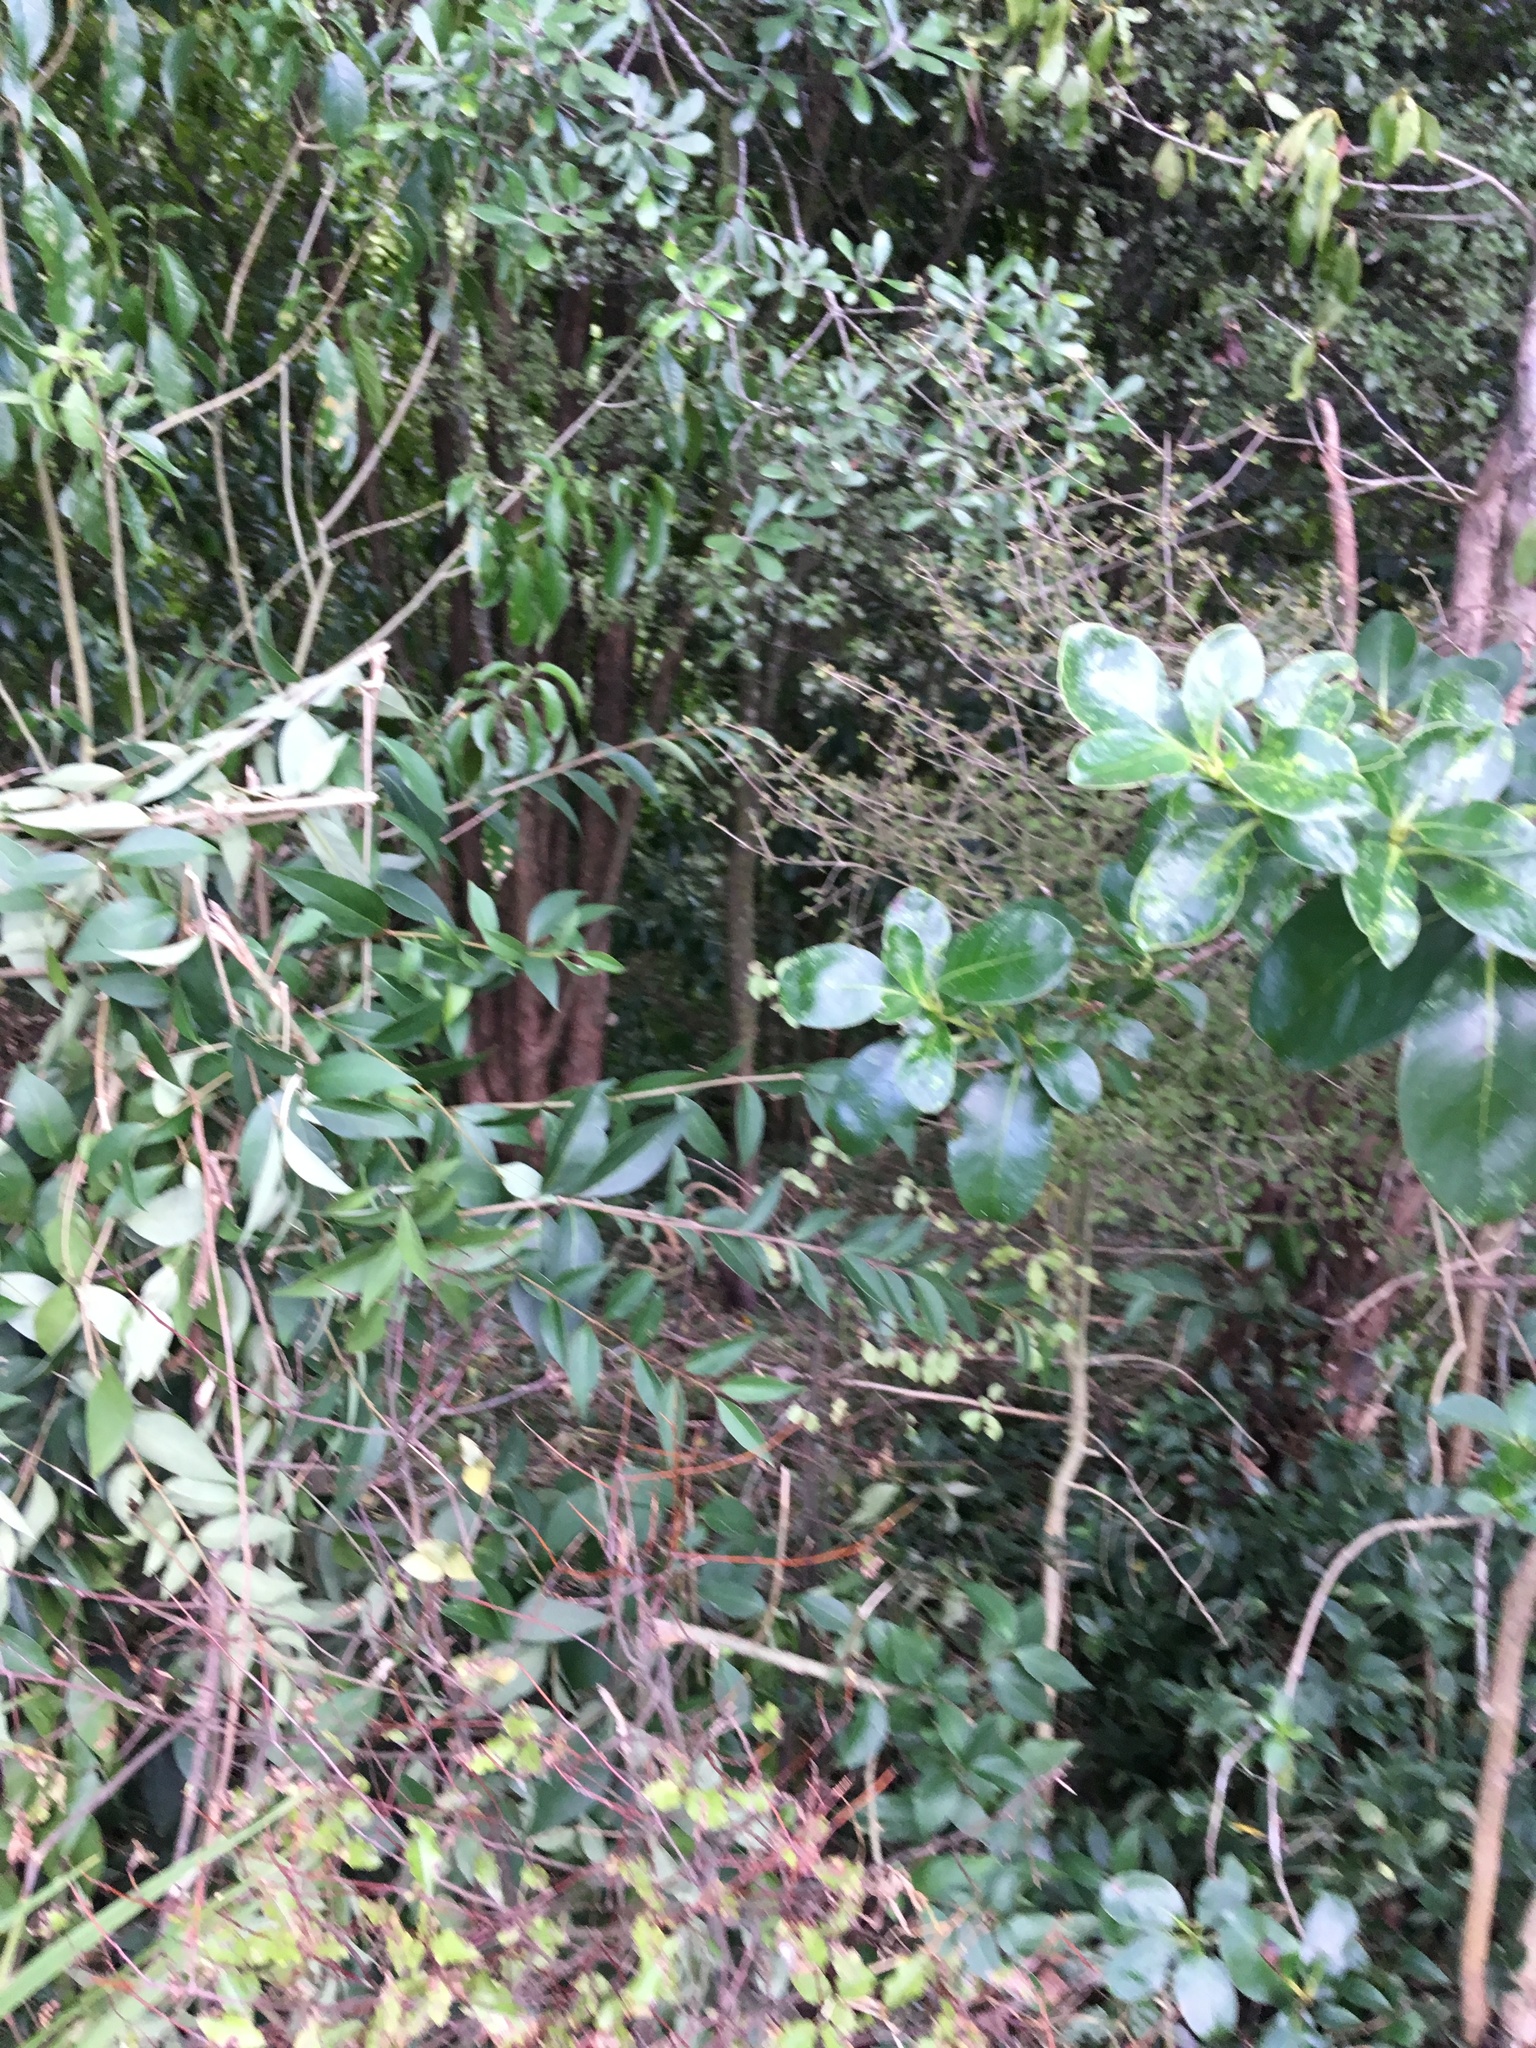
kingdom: Plantae
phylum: Tracheophyta
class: Magnoliopsida
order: Gentianales
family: Rubiaceae
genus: Coprosma
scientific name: Coprosma areolata
